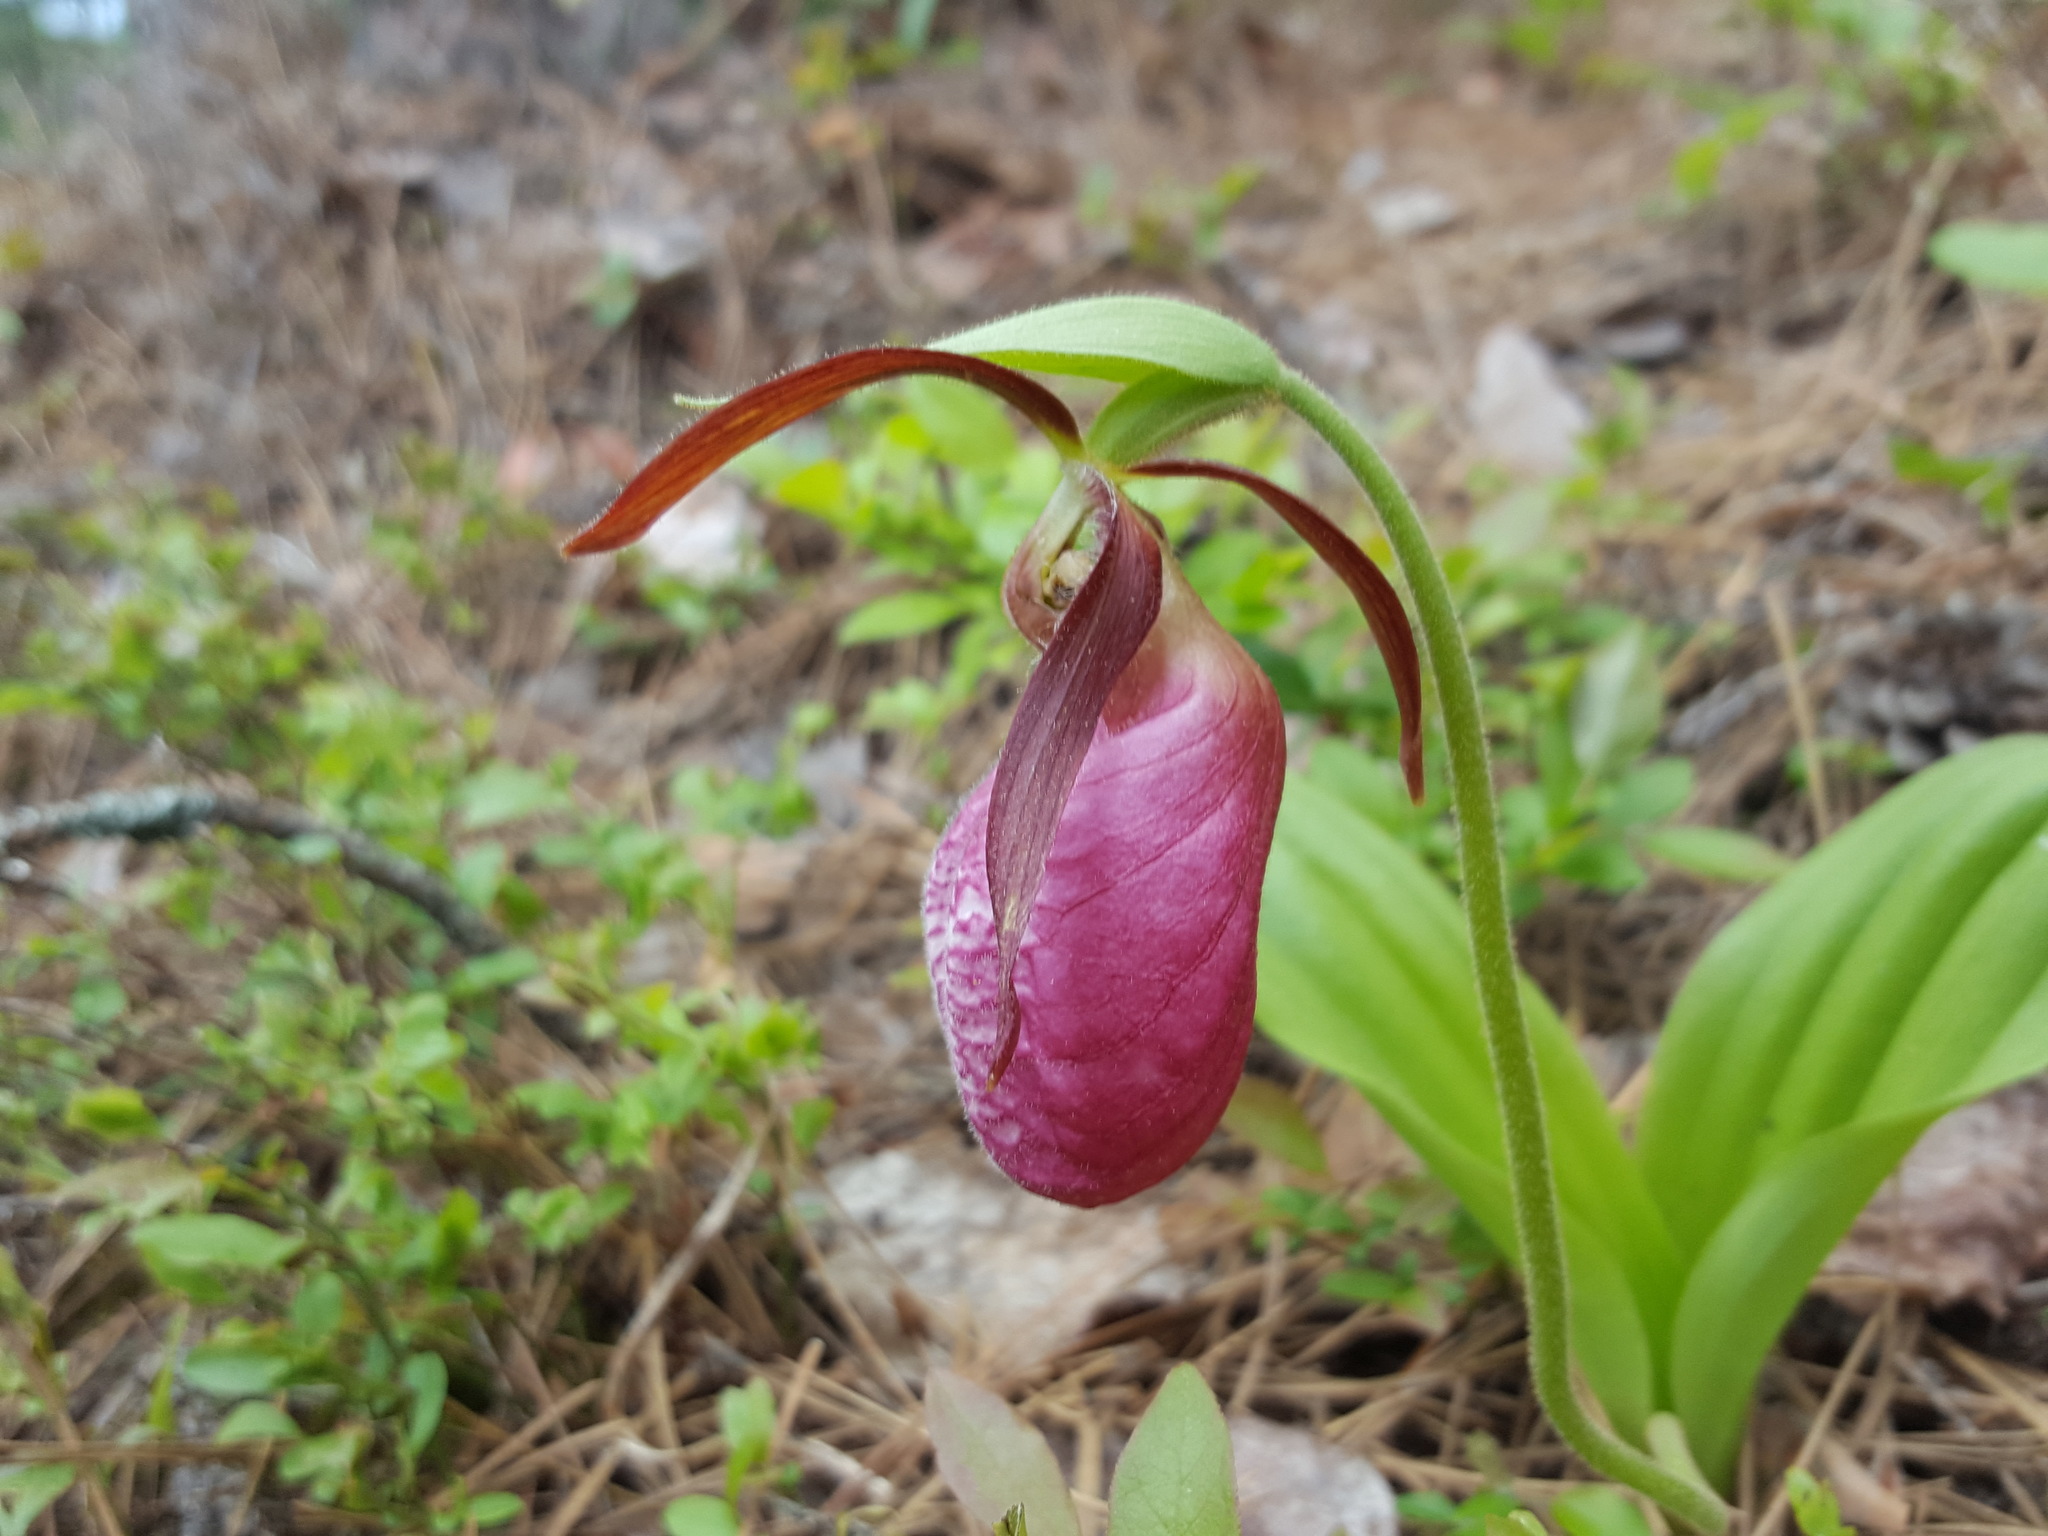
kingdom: Plantae
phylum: Tracheophyta
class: Liliopsida
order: Asparagales
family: Orchidaceae
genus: Cypripedium
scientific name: Cypripedium acaule
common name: Pink lady's-slipper
